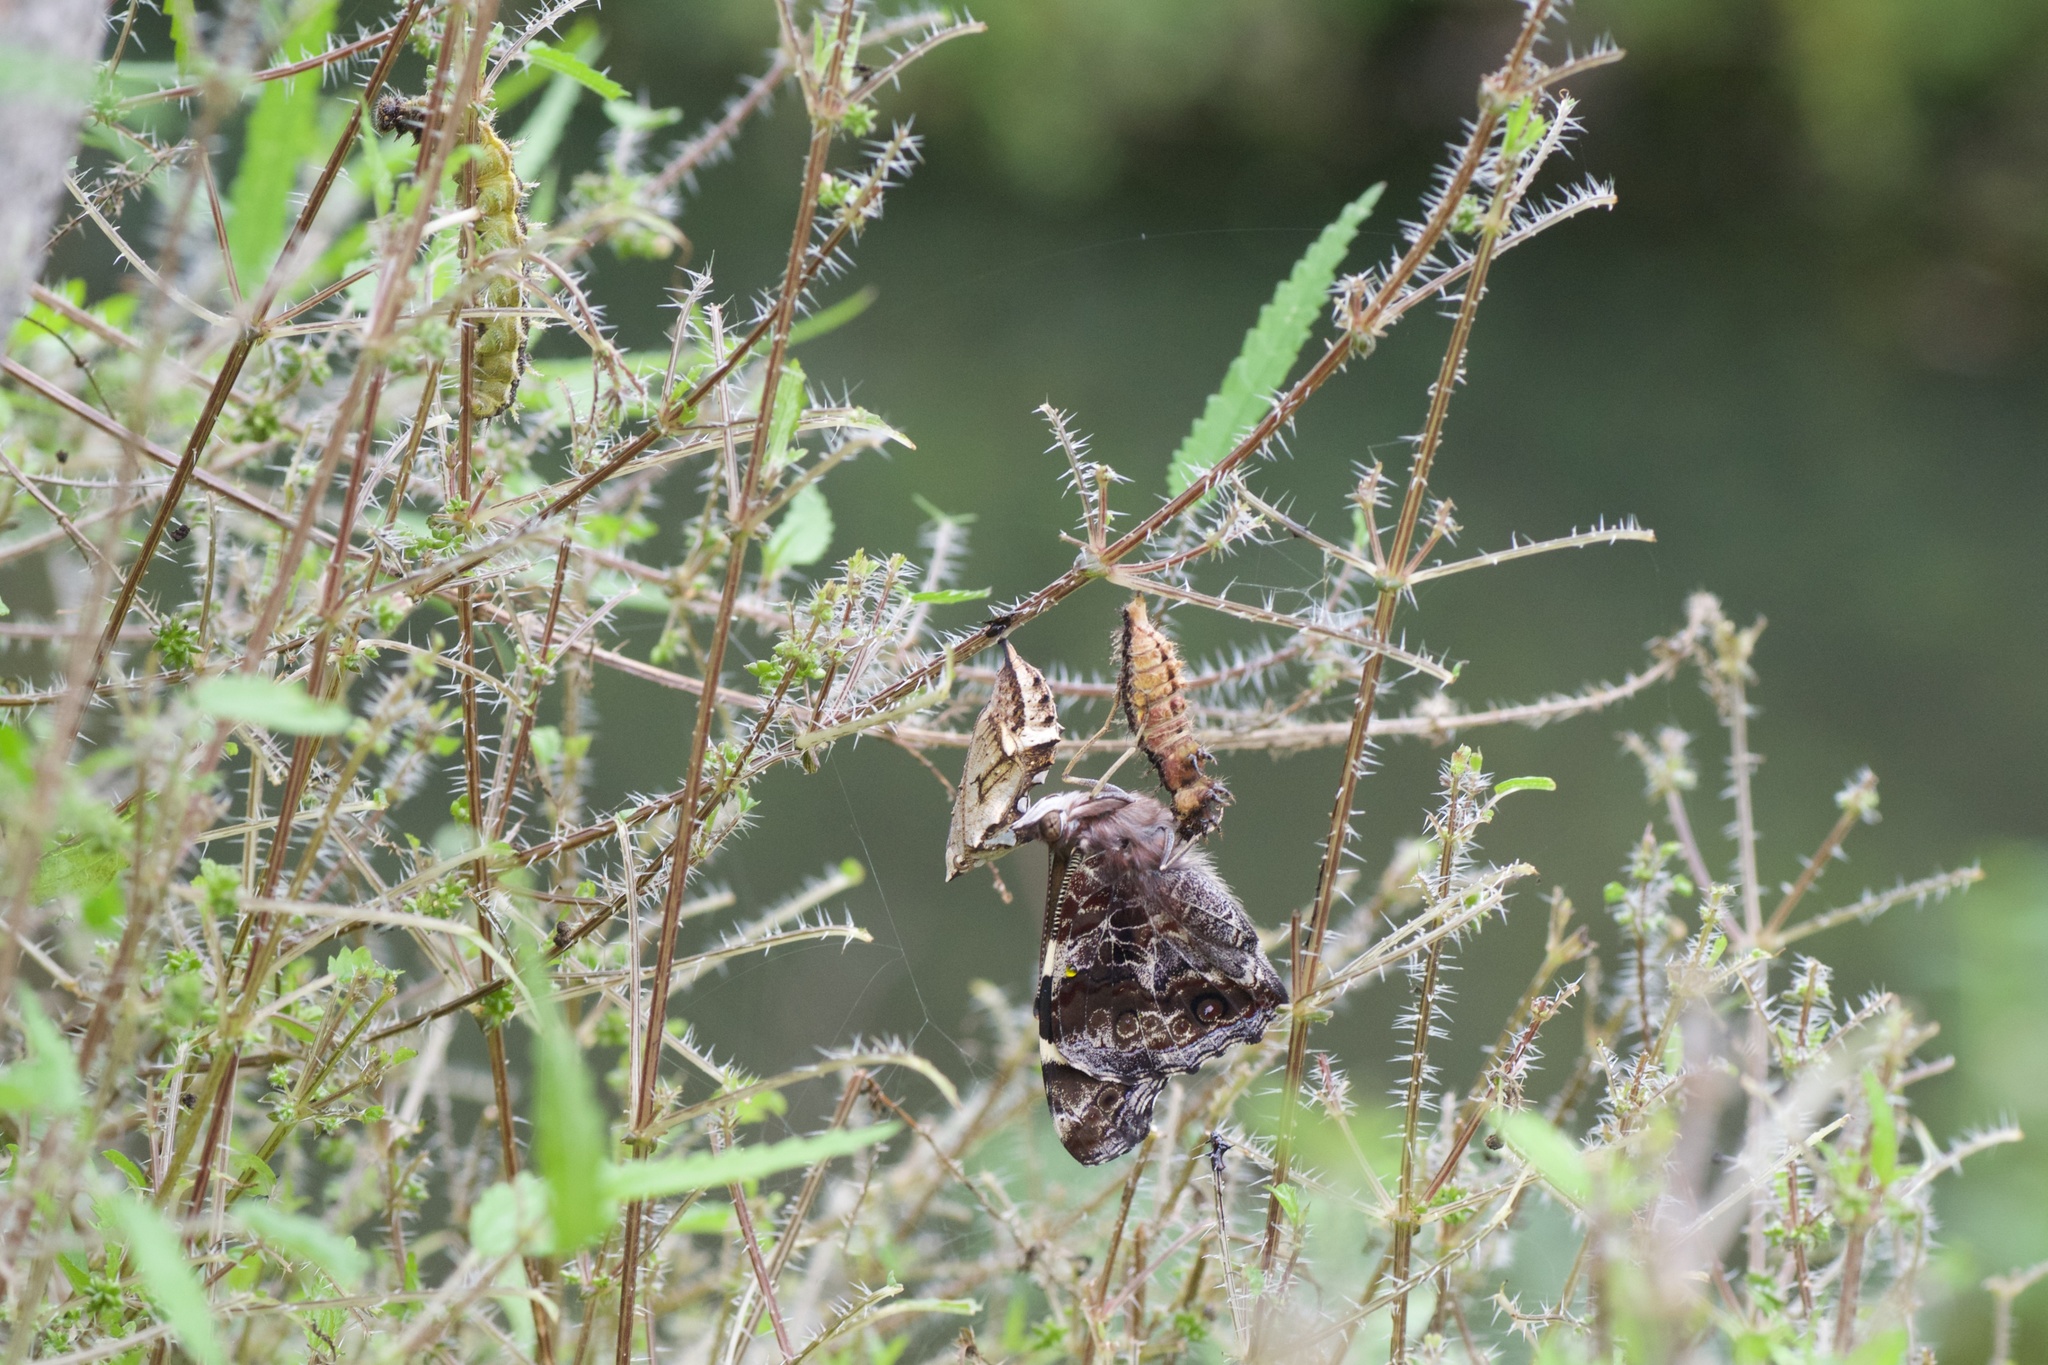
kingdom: Animalia
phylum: Arthropoda
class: Insecta
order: Lepidoptera
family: Nymphalidae
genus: Vanessa
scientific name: Vanessa itea
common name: Yellow admiral
